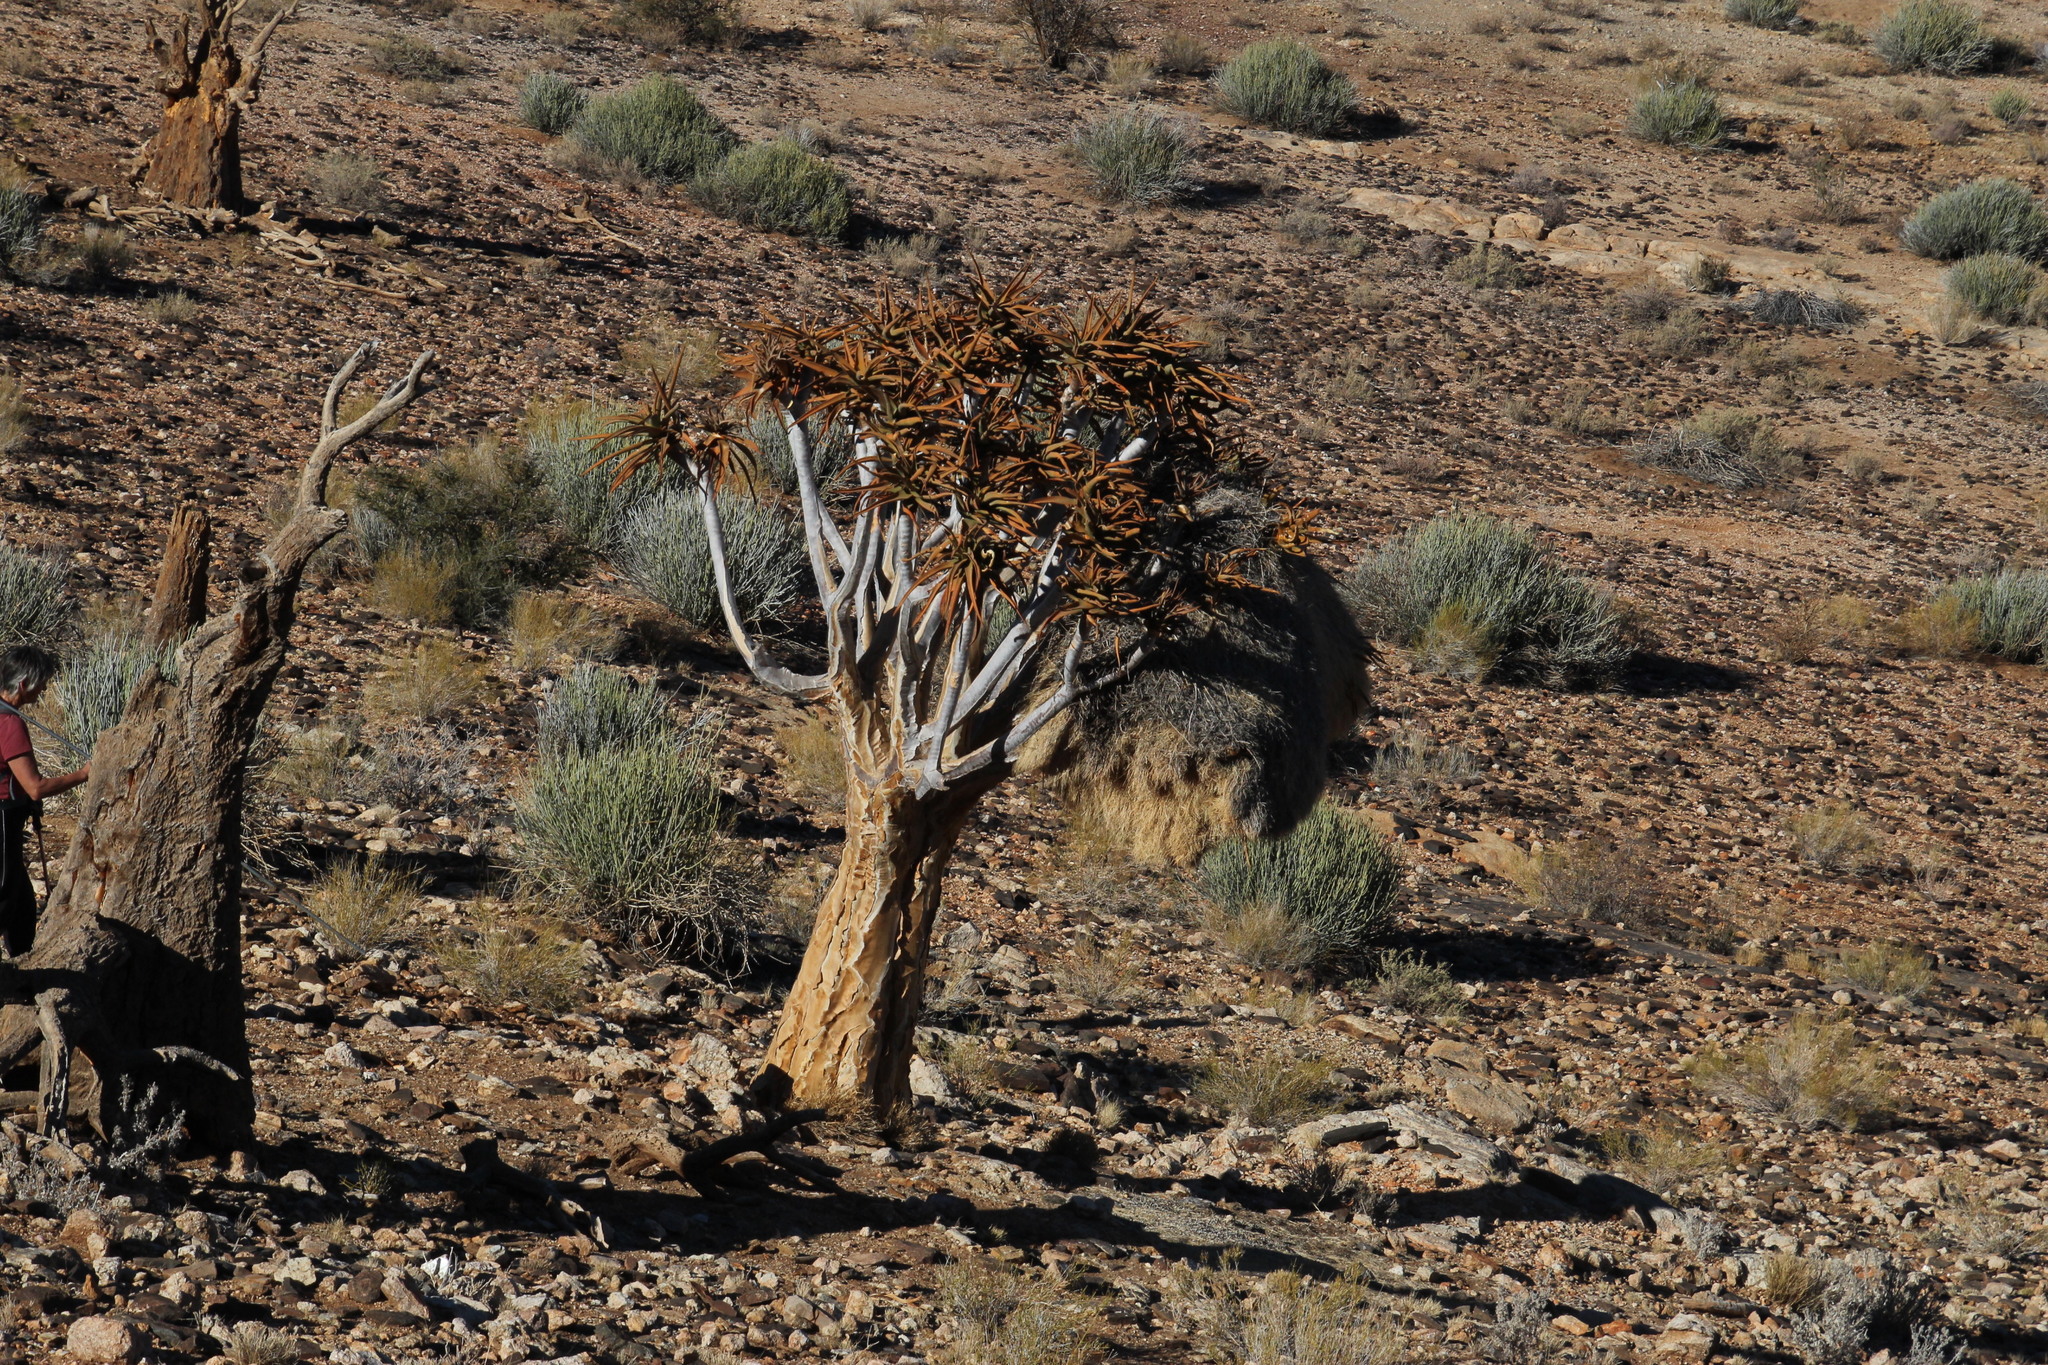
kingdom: Animalia
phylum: Chordata
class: Aves
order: Passeriformes
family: Passeridae
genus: Philetairus
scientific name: Philetairus socius
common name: Sociable weaver
